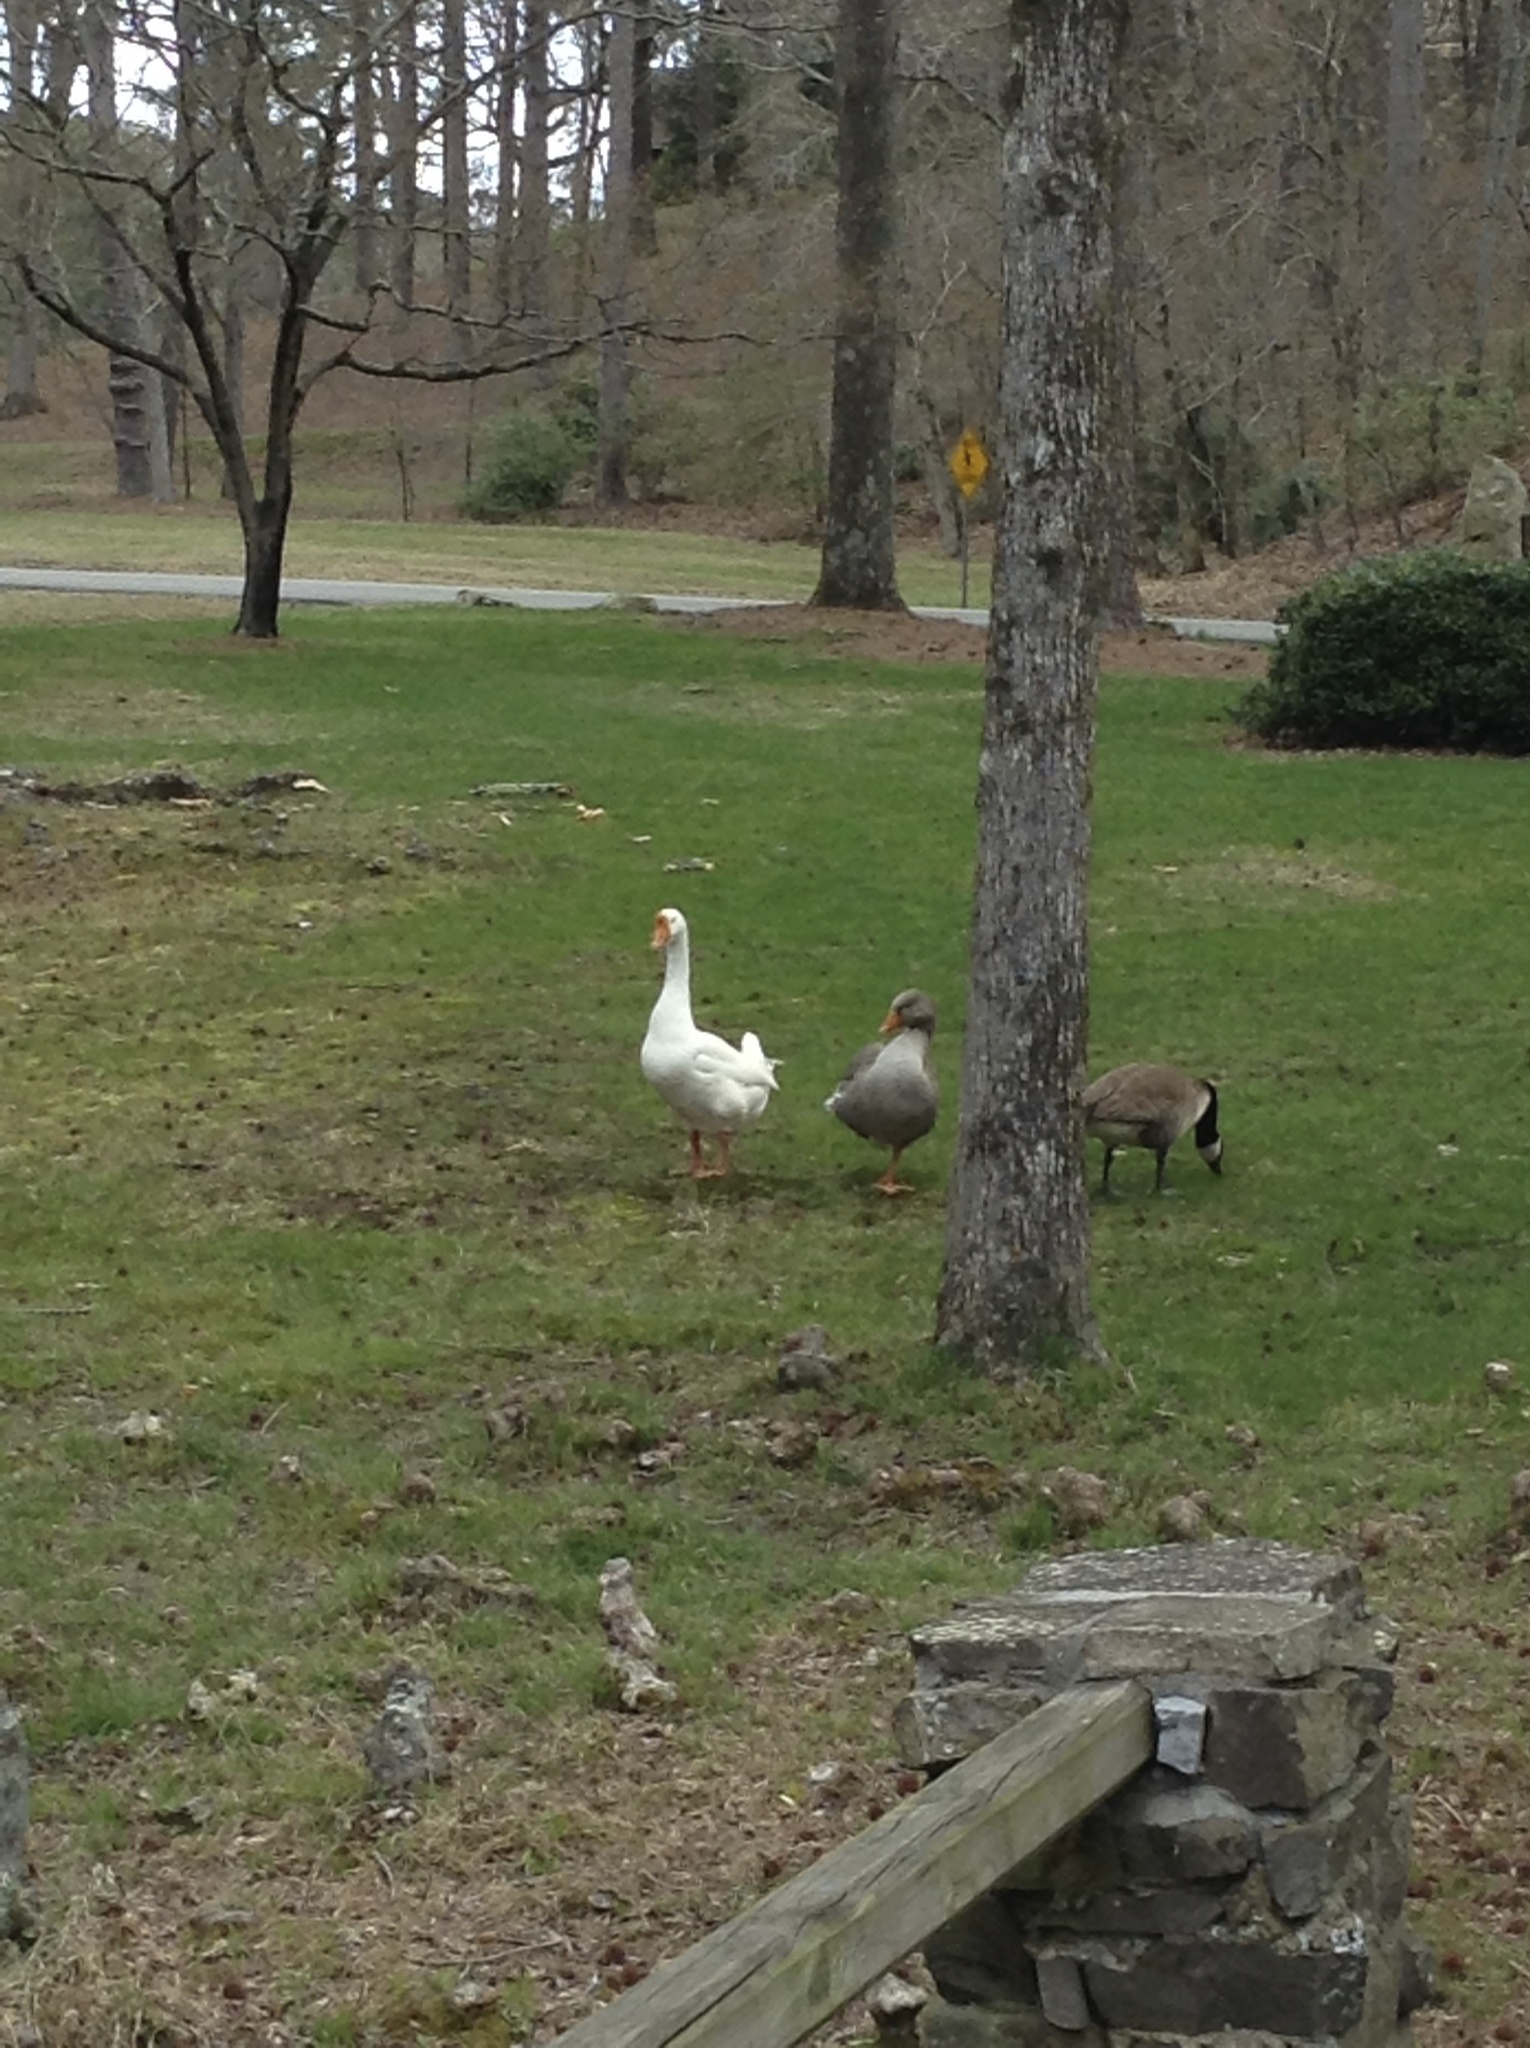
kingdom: Animalia
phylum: Chordata
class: Aves
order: Anseriformes
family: Anatidae
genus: Anser
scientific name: Anser cygnoides
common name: Swan goose
